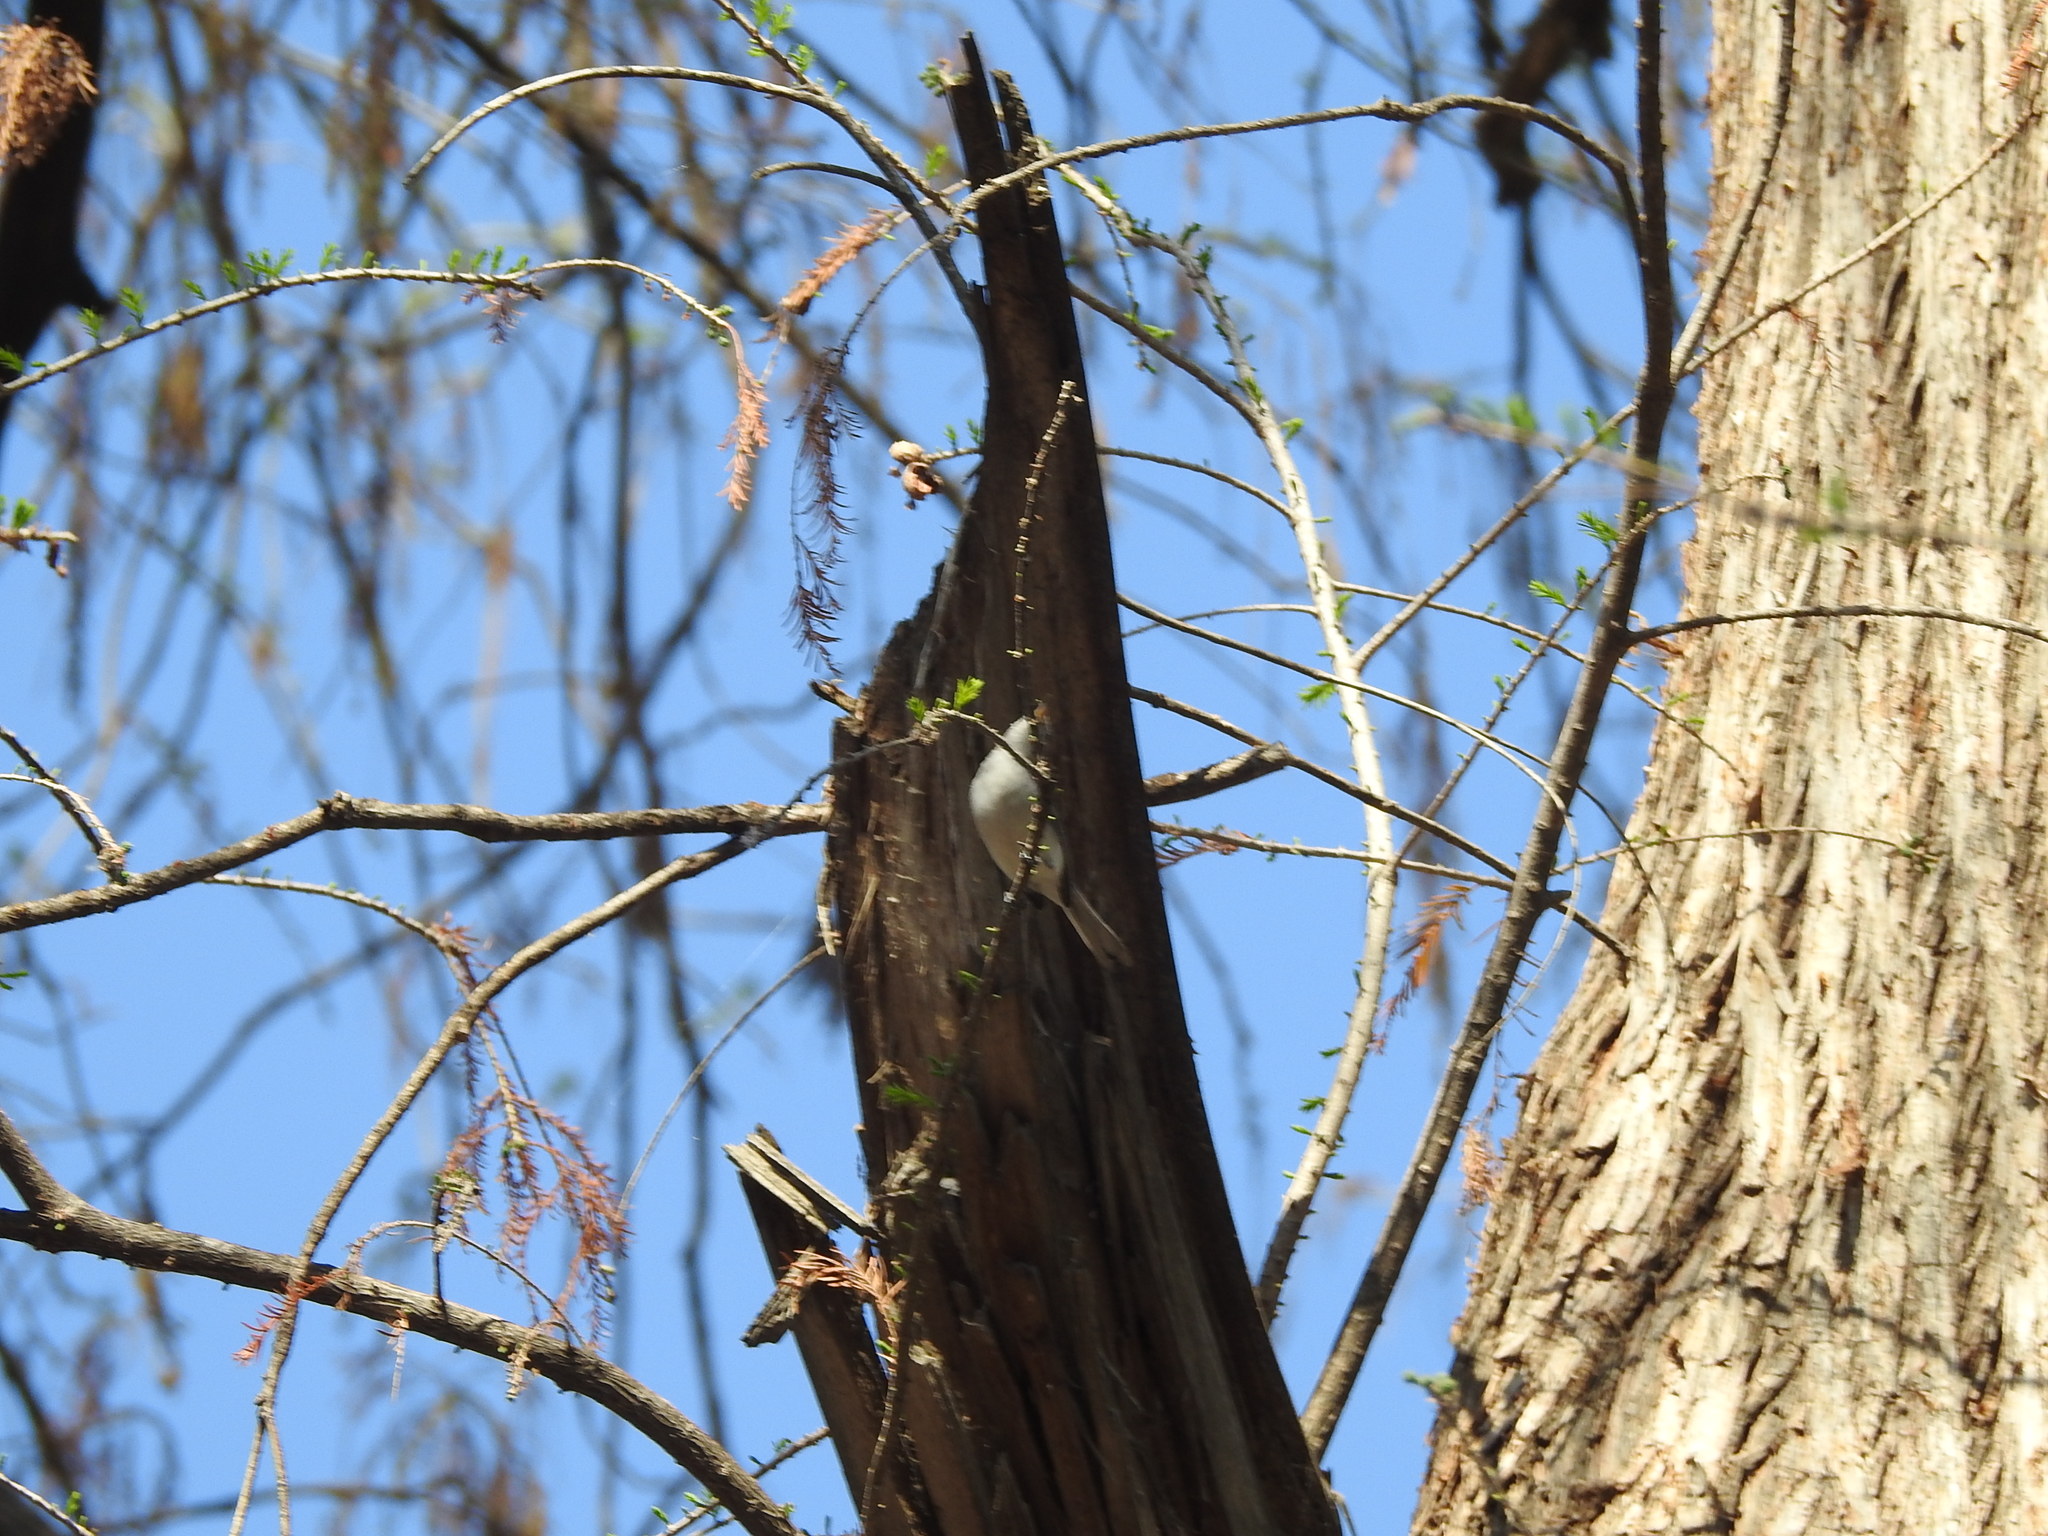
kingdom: Animalia
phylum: Chordata
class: Aves
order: Passeriformes
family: Polioptilidae
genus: Polioptila
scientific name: Polioptila caerulea
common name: Blue-gray gnatcatcher
